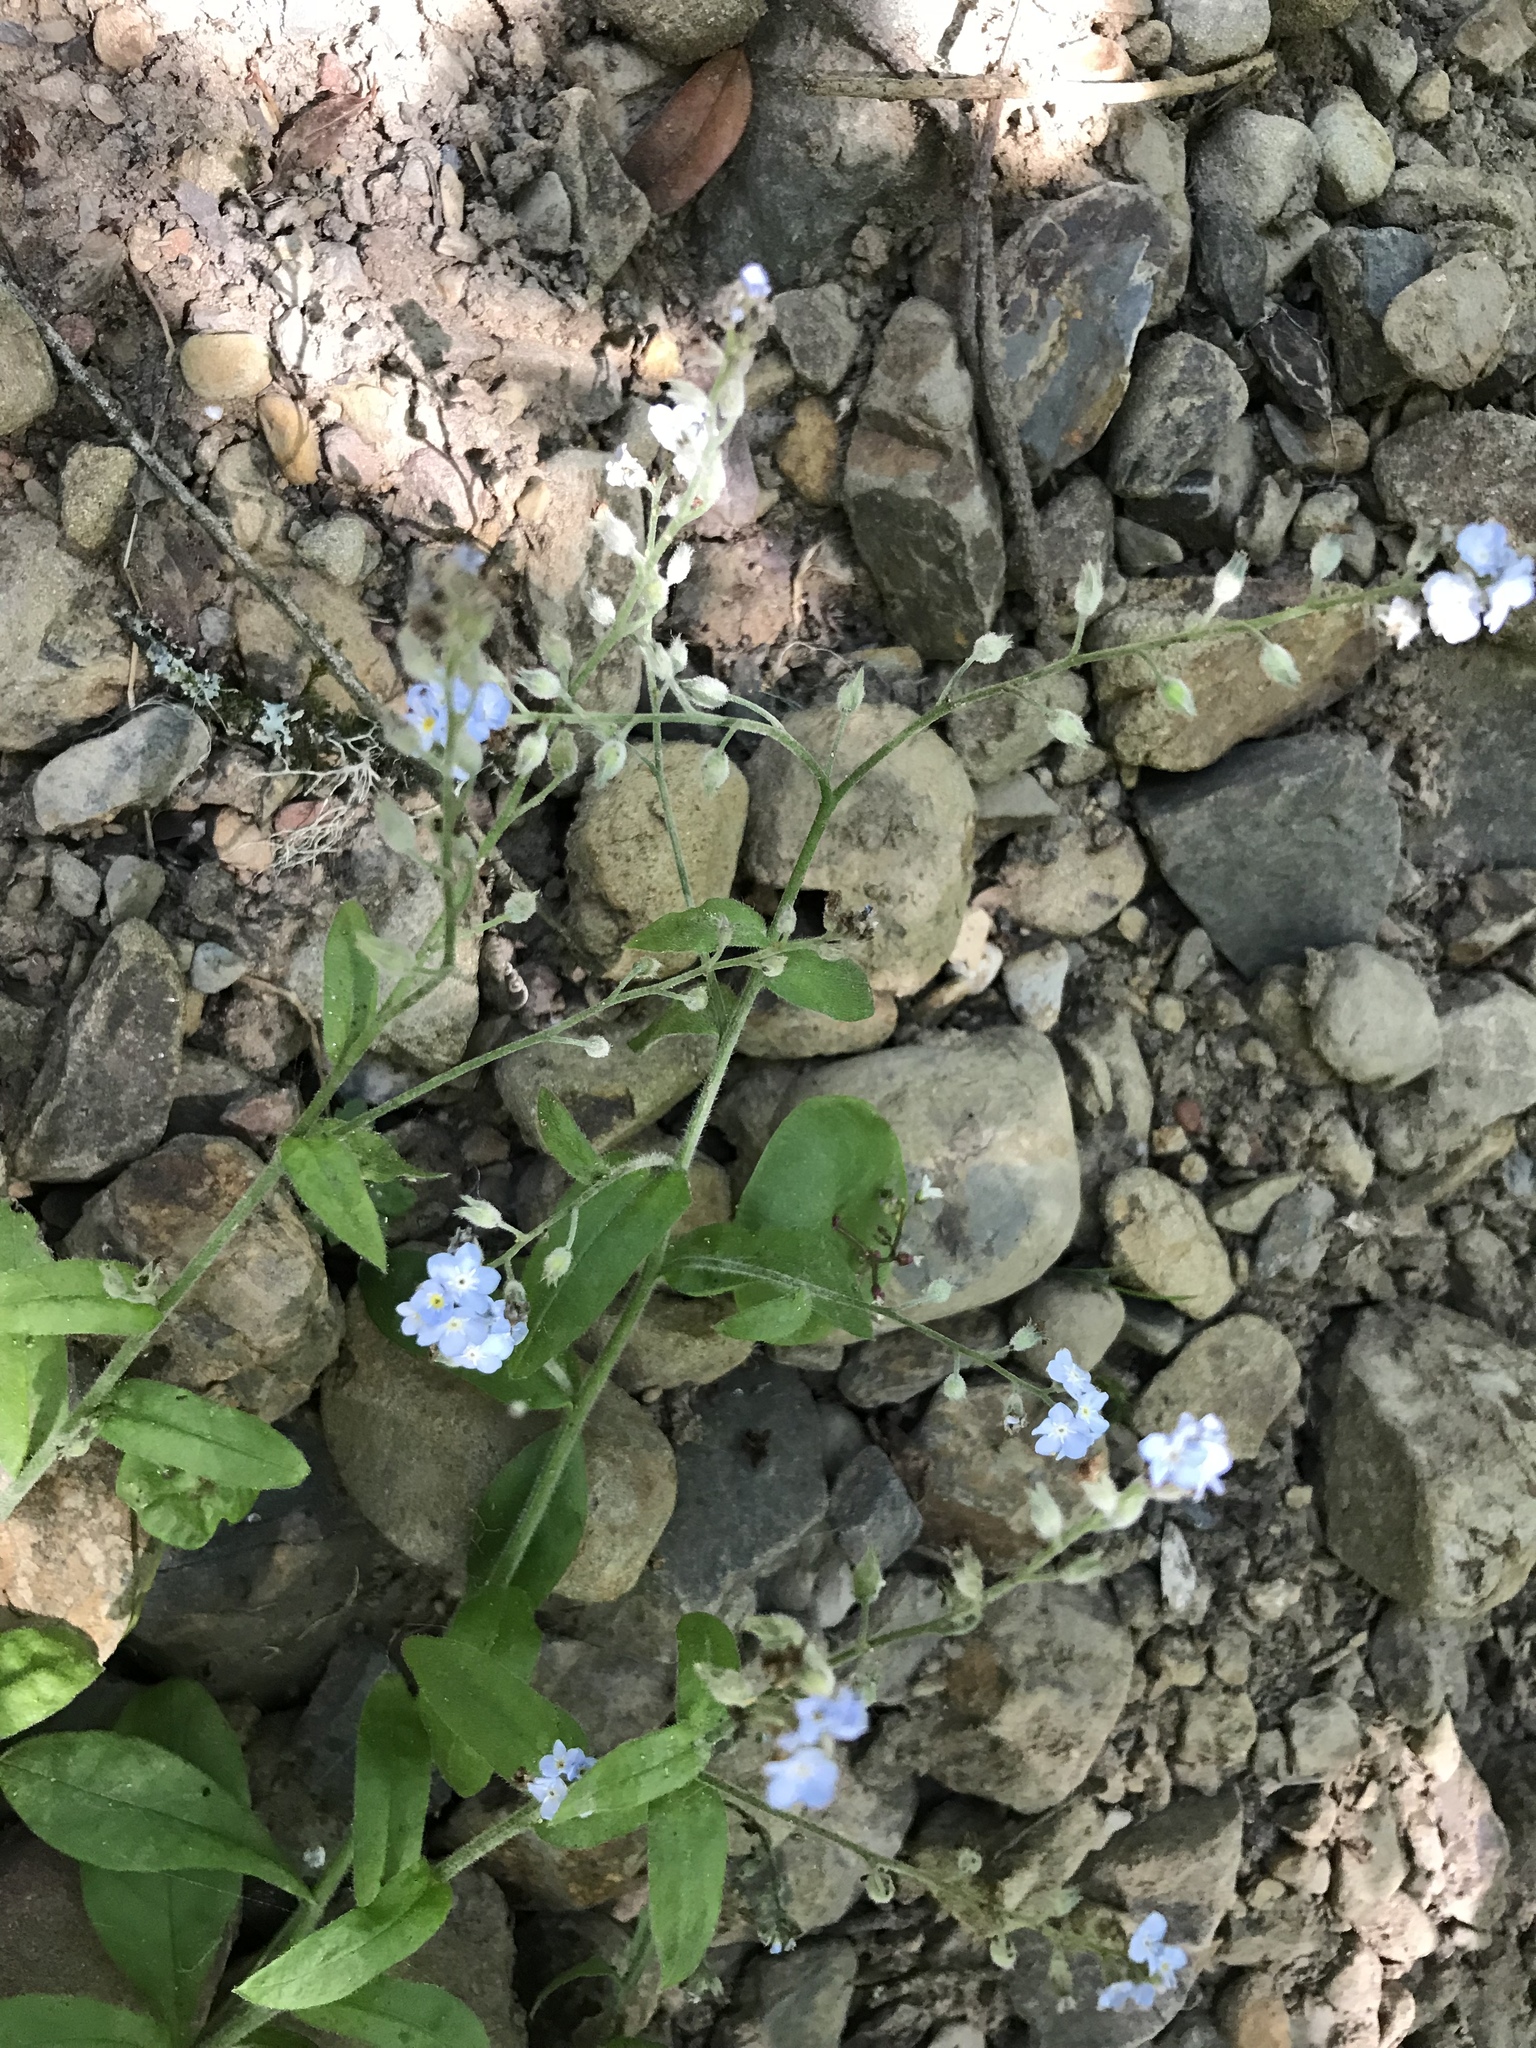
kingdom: Plantae
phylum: Tracheophyta
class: Magnoliopsida
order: Boraginales
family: Boraginaceae
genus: Myosotis
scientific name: Myosotis latifolia
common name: Broadleaf forget-me-not
